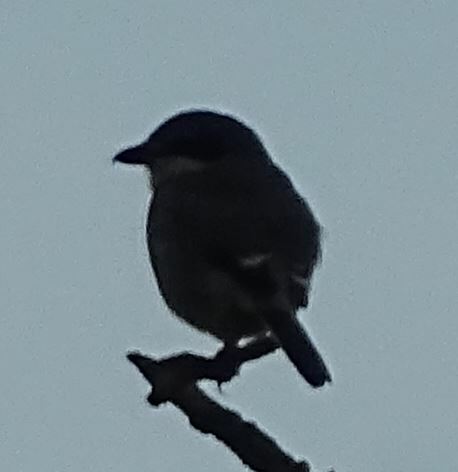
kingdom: Animalia
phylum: Chordata
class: Aves
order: Passeriformes
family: Laniidae
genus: Lanius
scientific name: Lanius meridionalis
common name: Iberian grey shrike
